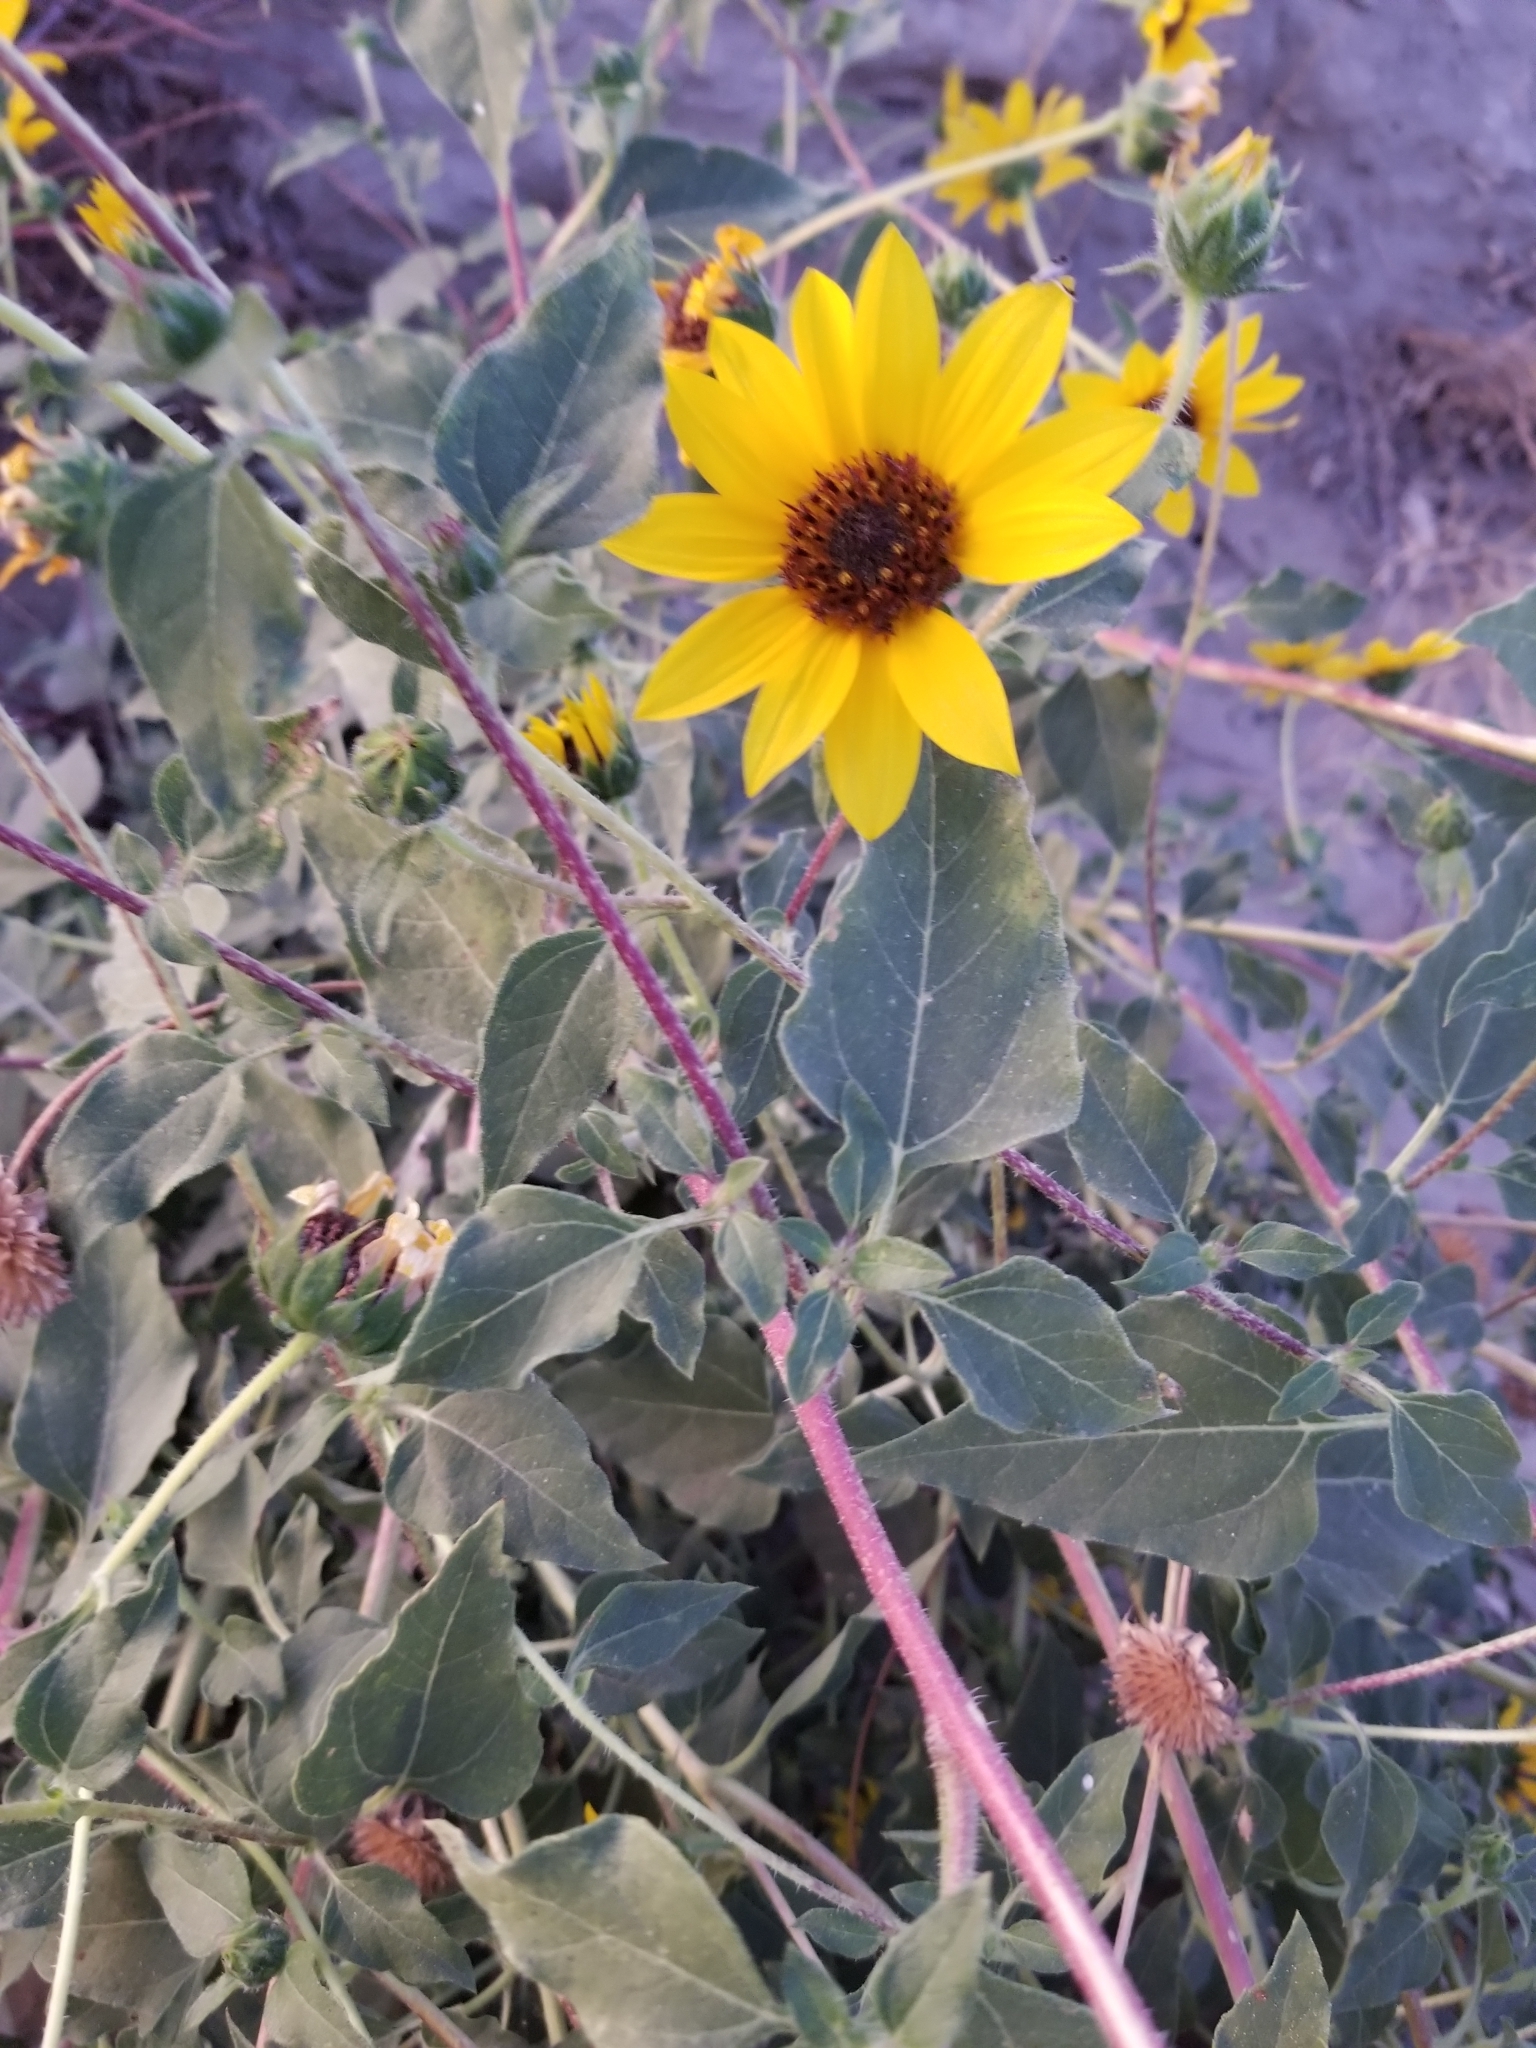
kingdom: Plantae
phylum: Tracheophyta
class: Magnoliopsida
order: Asterales
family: Asteraceae
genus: Helianthus
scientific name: Helianthus annuus
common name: Sunflower
